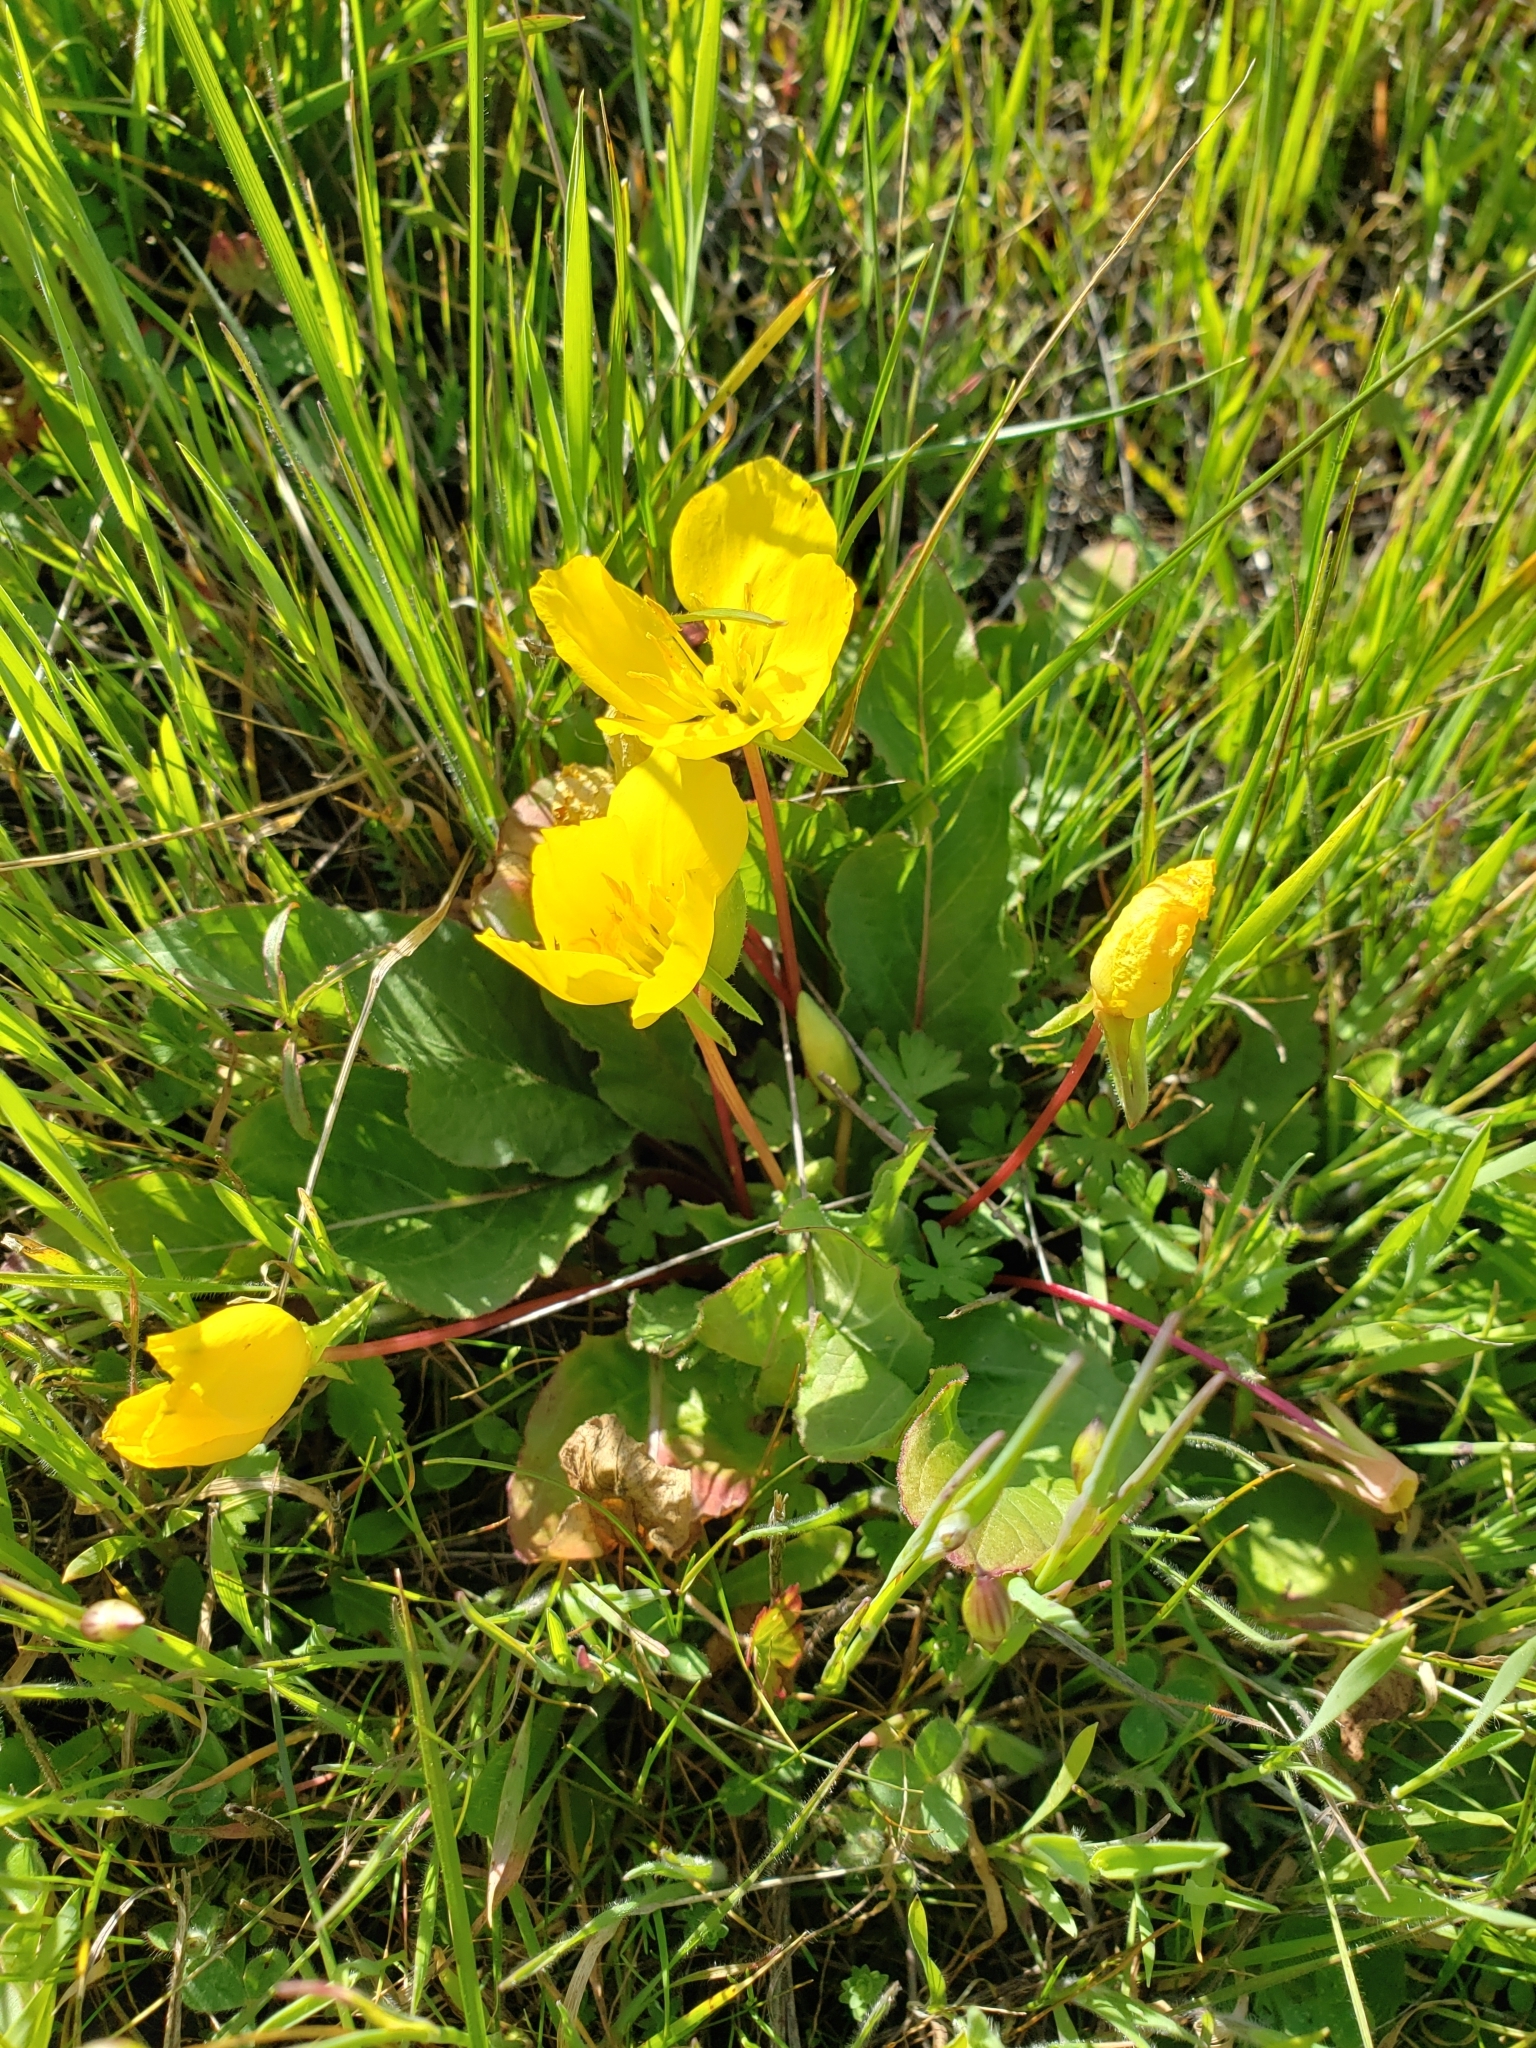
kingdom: Plantae
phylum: Tracheophyta
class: Magnoliopsida
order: Myrtales
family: Onagraceae
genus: Taraxia
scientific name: Taraxia ovata
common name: Goldeneggs
